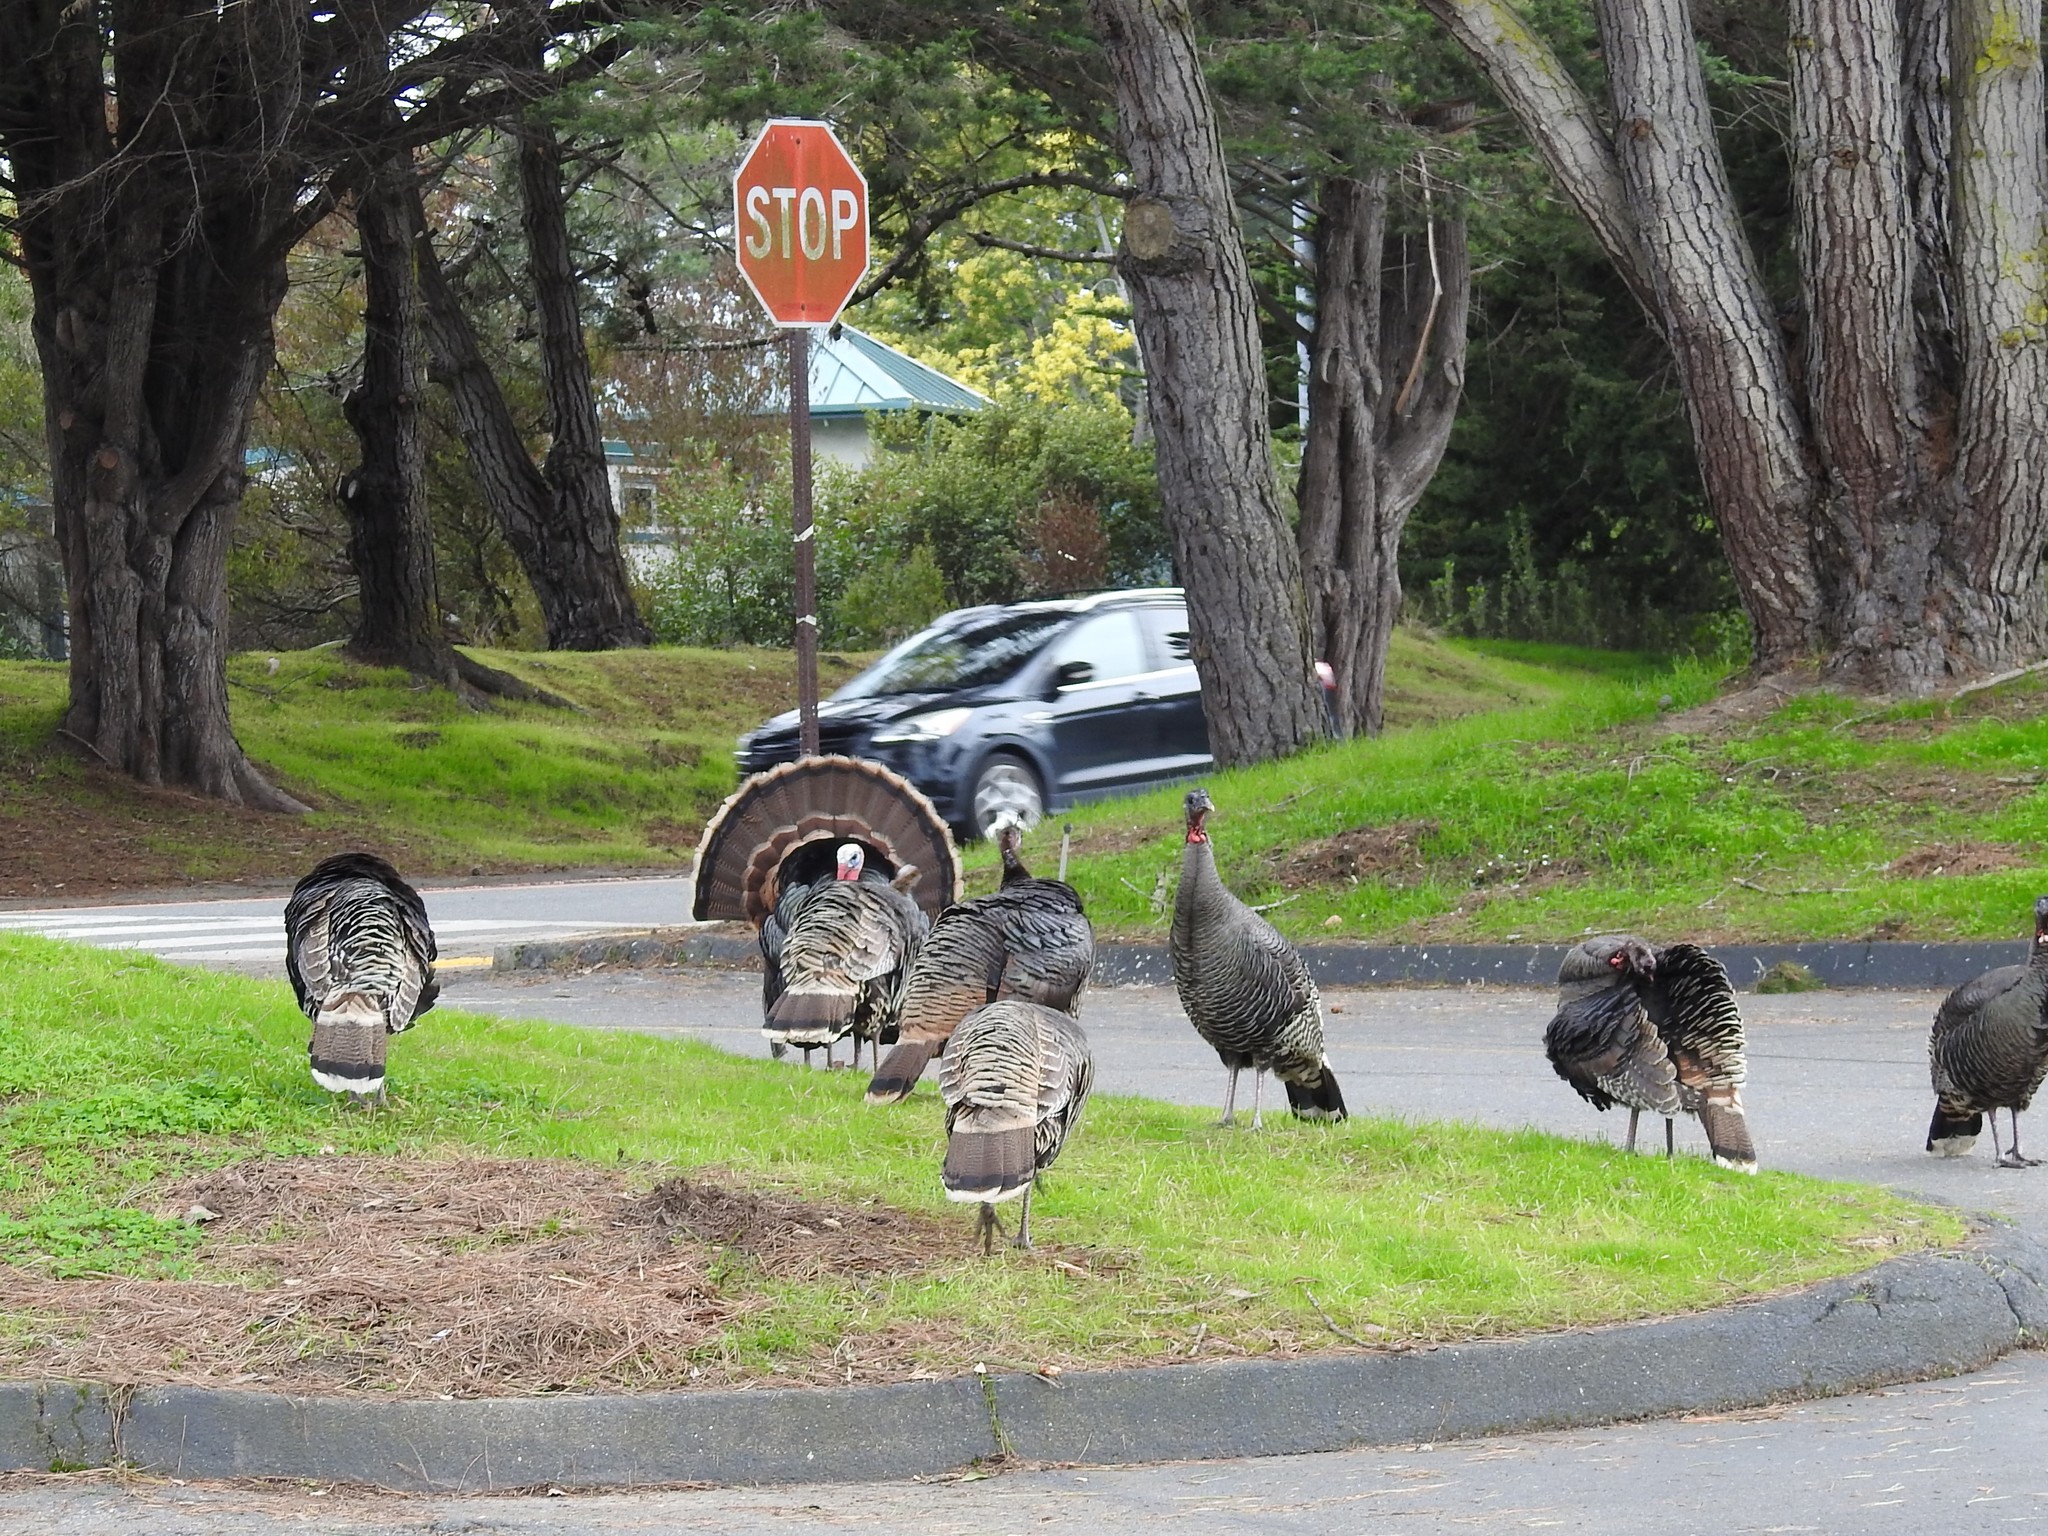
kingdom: Animalia
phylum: Chordata
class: Aves
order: Galliformes
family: Phasianidae
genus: Meleagris
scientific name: Meleagris gallopavo
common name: Wild turkey
